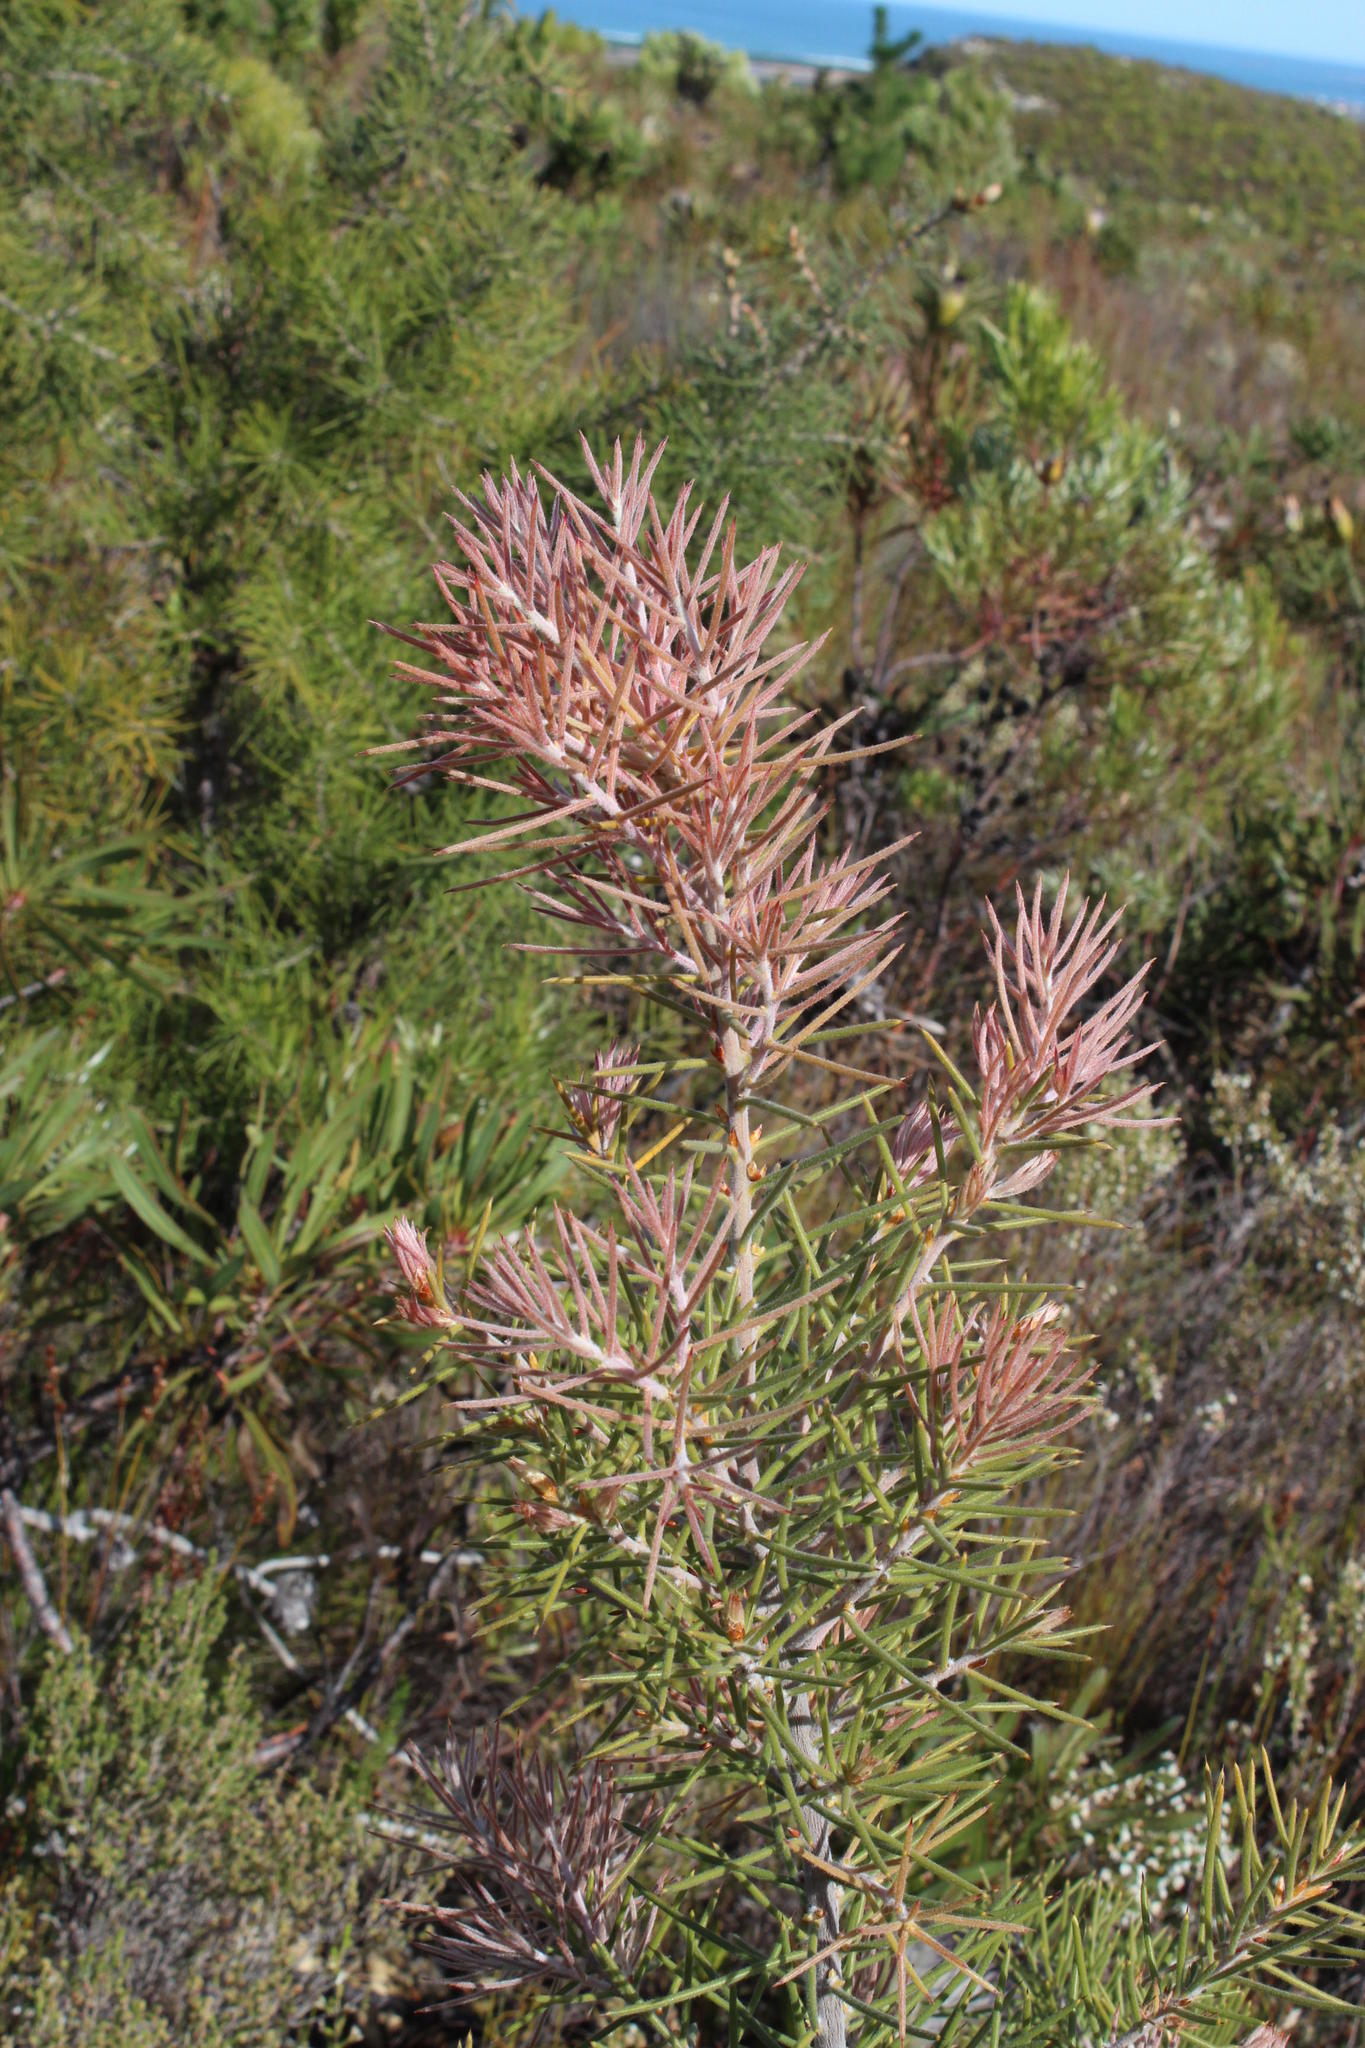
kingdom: Plantae
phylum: Tracheophyta
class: Magnoliopsida
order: Proteales
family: Proteaceae
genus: Hakea
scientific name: Hakea gibbosa
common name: Rock hakea
